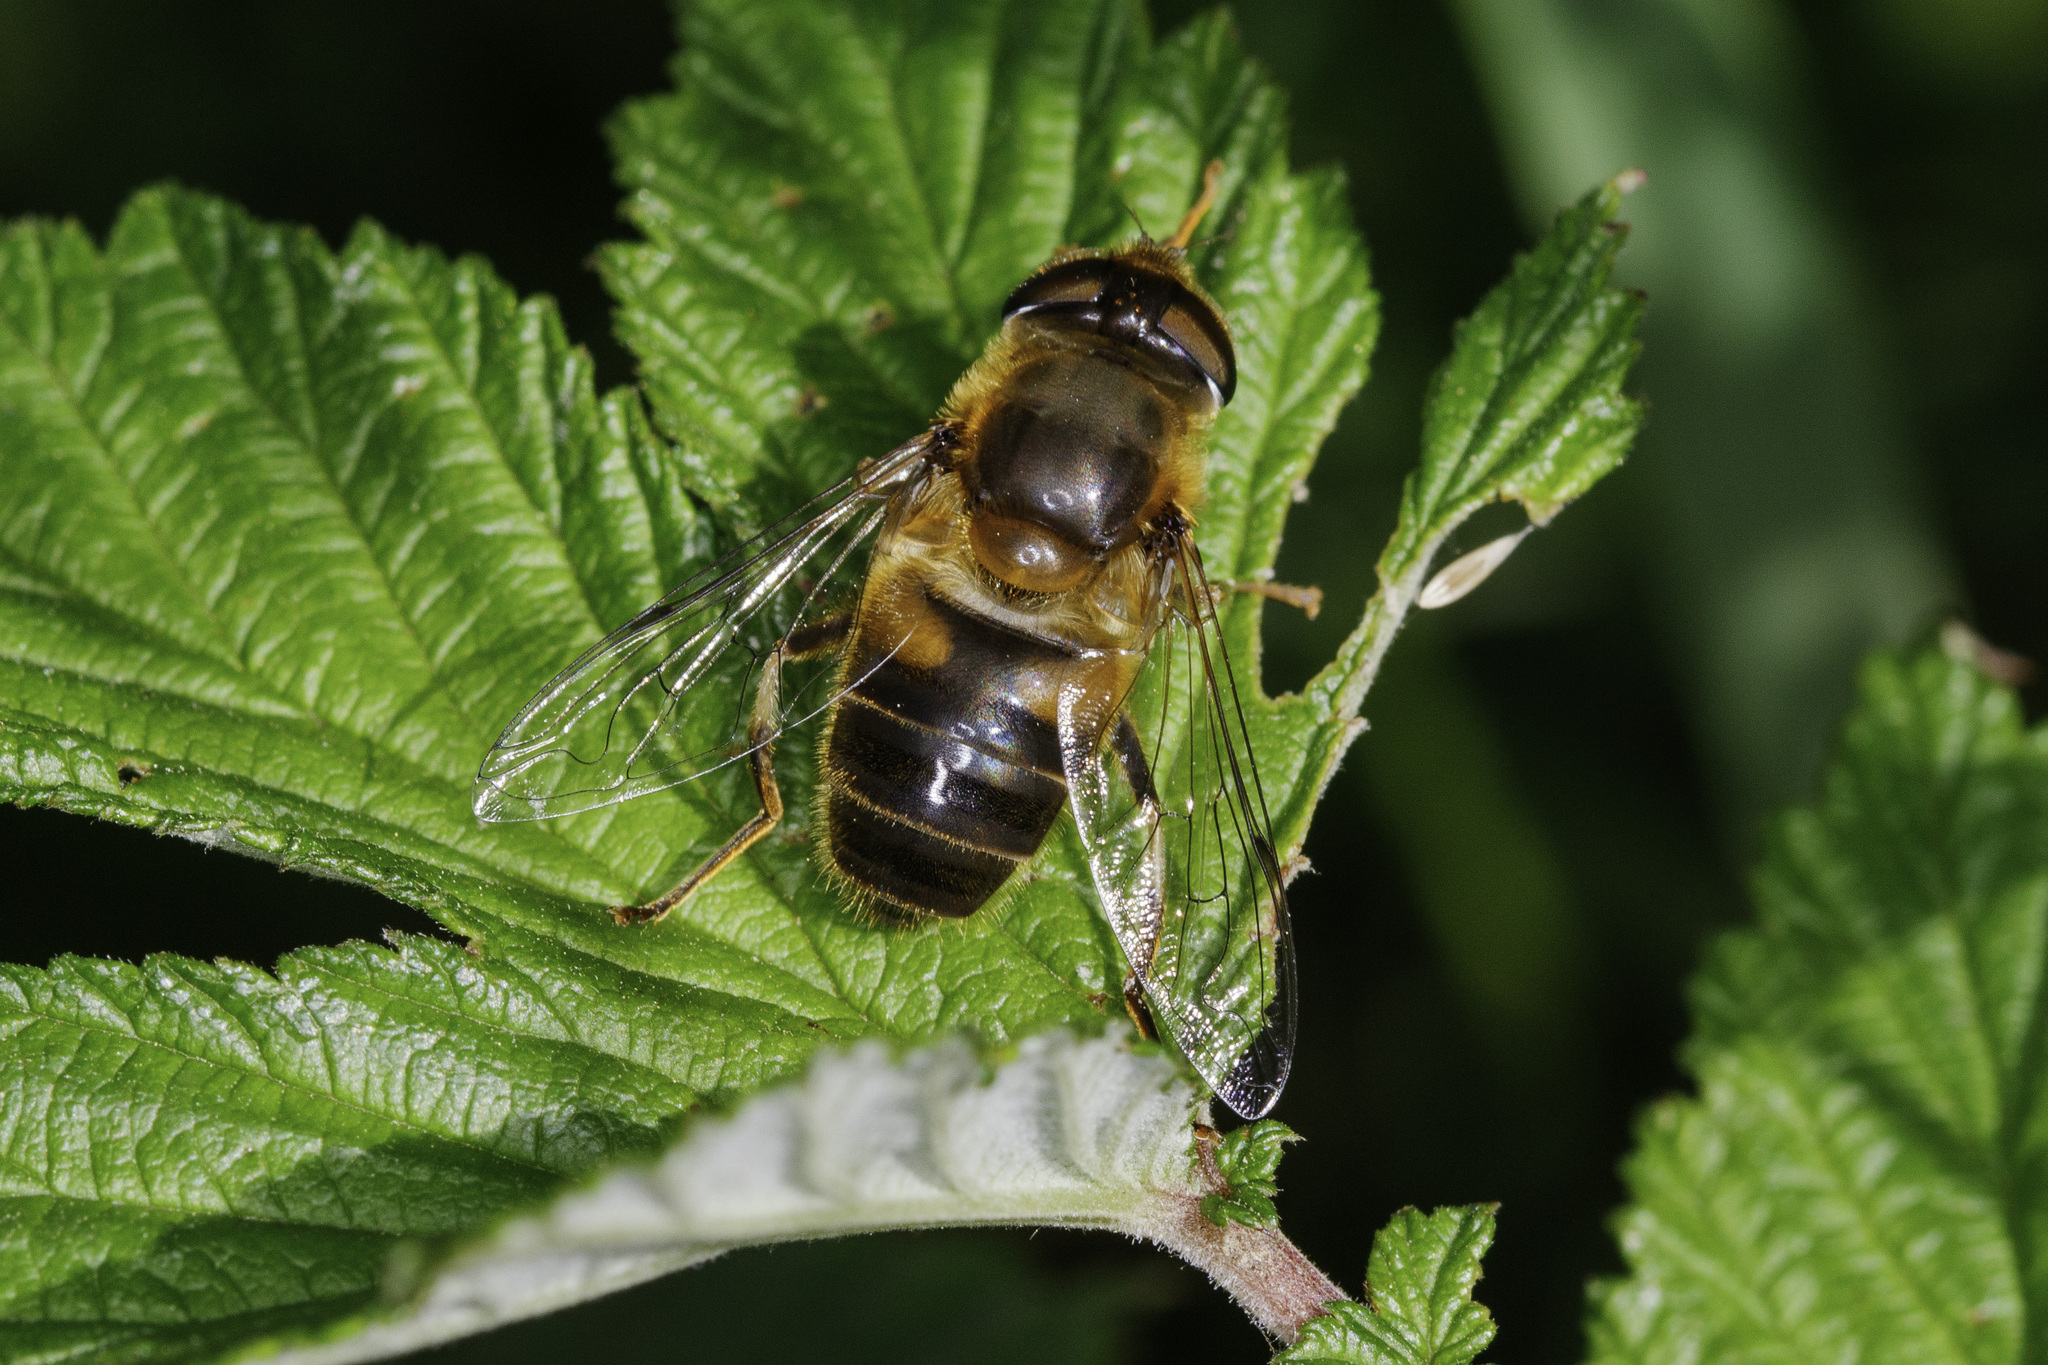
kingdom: Animalia
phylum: Arthropoda
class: Insecta
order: Diptera
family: Syrphidae
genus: Eristalis
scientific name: Eristalis pertinax
